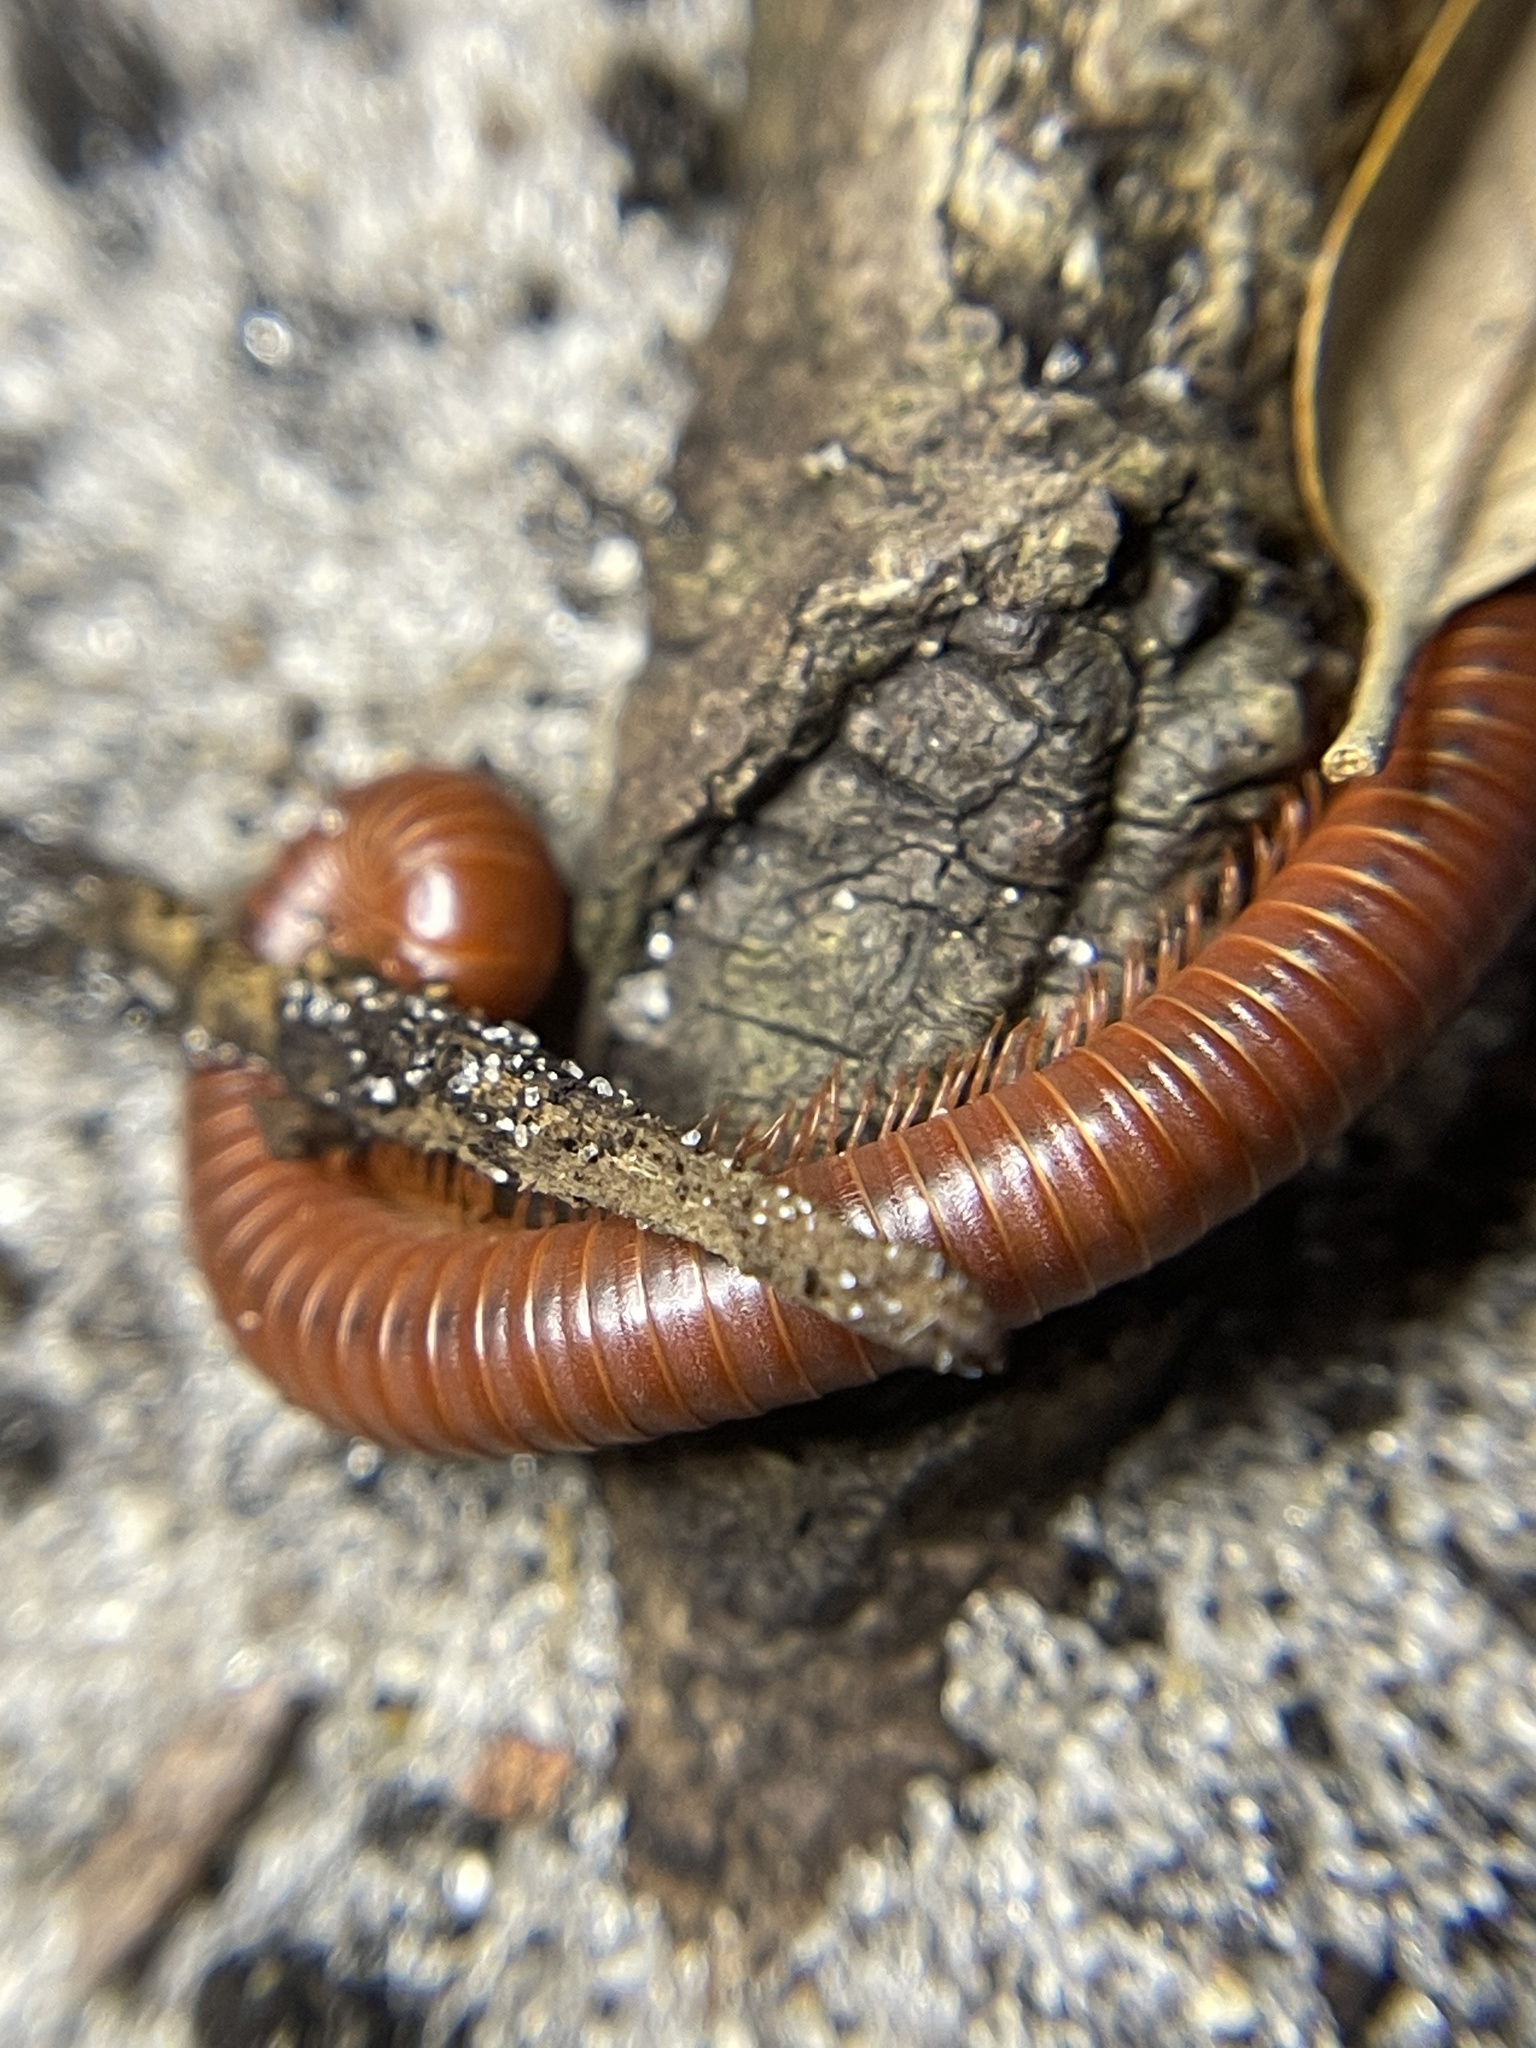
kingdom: Animalia
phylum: Arthropoda
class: Diplopoda
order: Spirobolida
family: Pachybolidae
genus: Trigoniulus
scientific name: Trigoniulus corallinus
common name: Millipede
